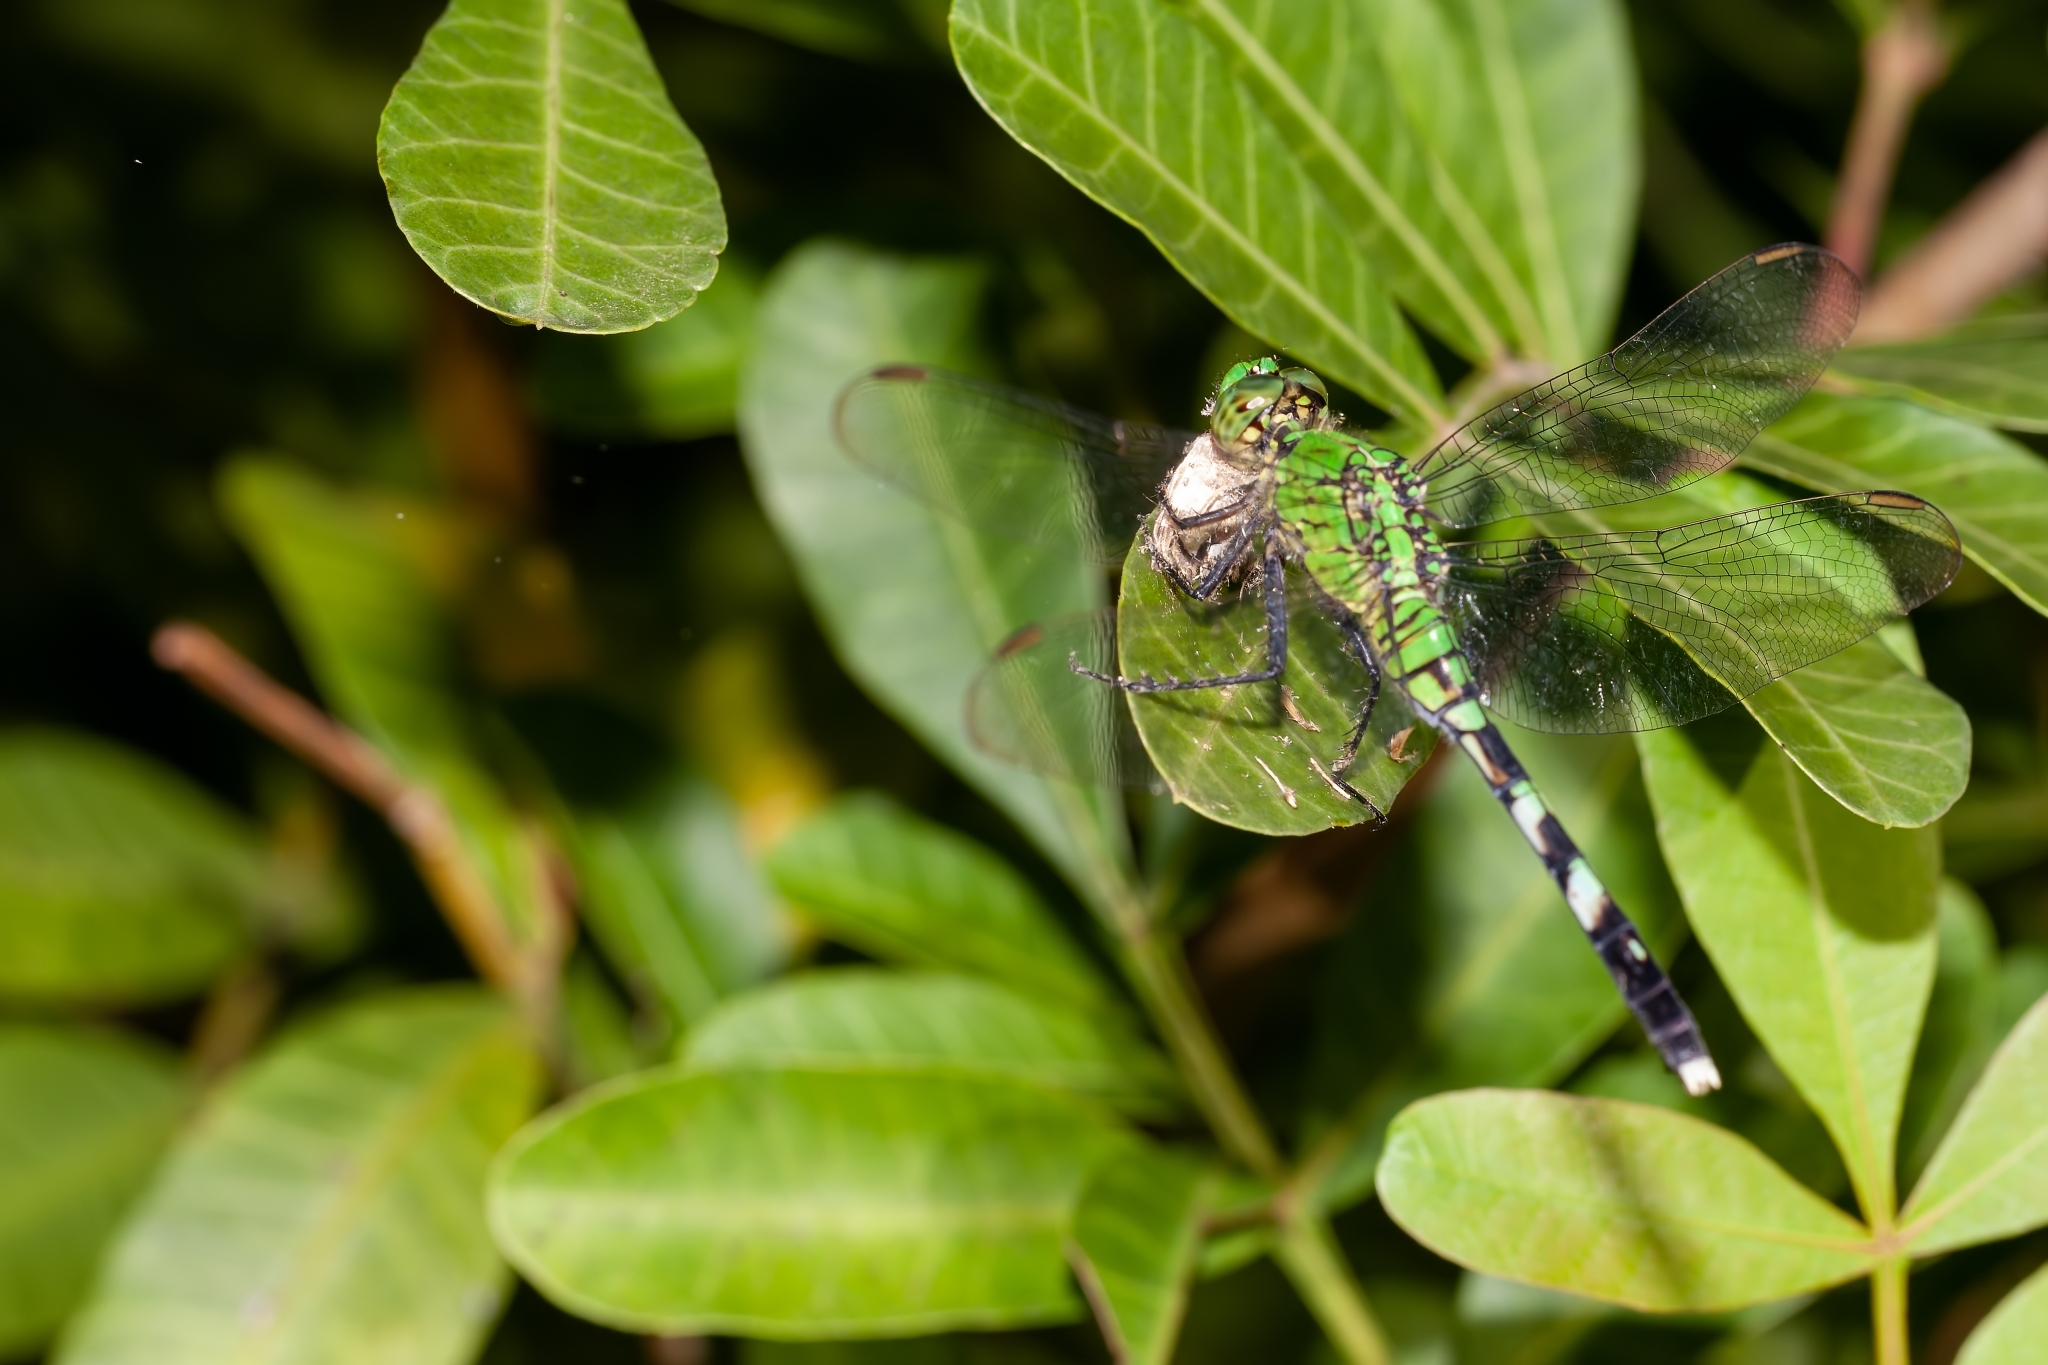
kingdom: Animalia
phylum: Arthropoda
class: Insecta
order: Odonata
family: Libellulidae
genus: Erythemis
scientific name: Erythemis simplicicollis
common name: Eastern pondhawk
